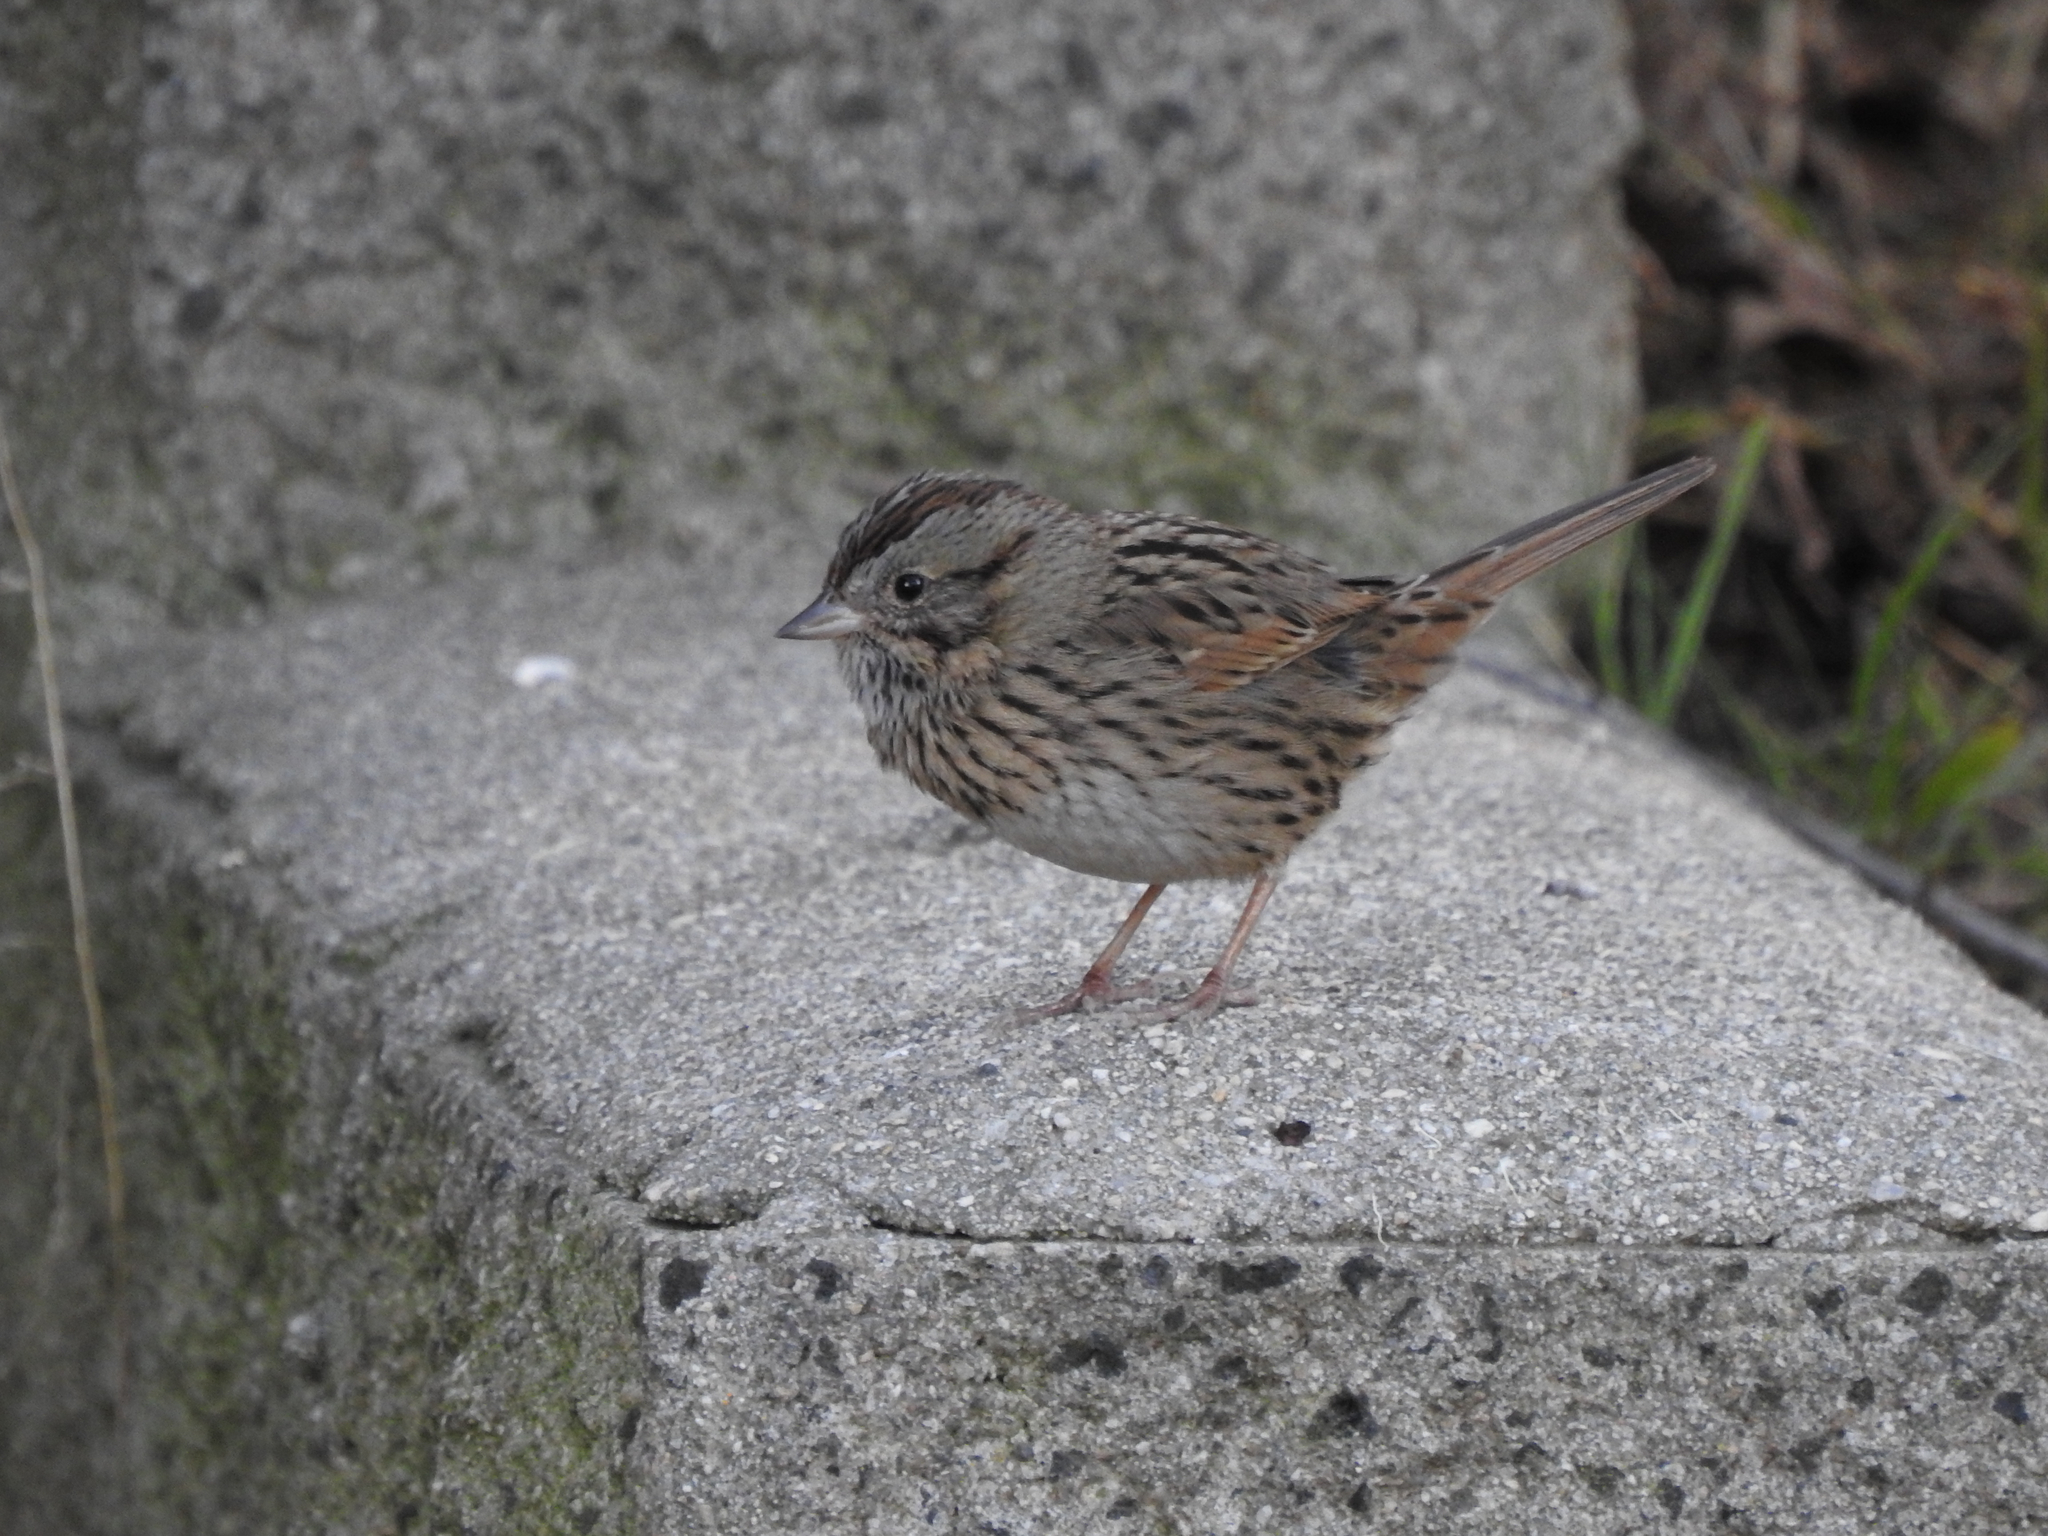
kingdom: Animalia
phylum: Chordata
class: Aves
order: Passeriformes
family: Passerellidae
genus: Melospiza
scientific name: Melospiza lincolnii
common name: Lincoln's sparrow
